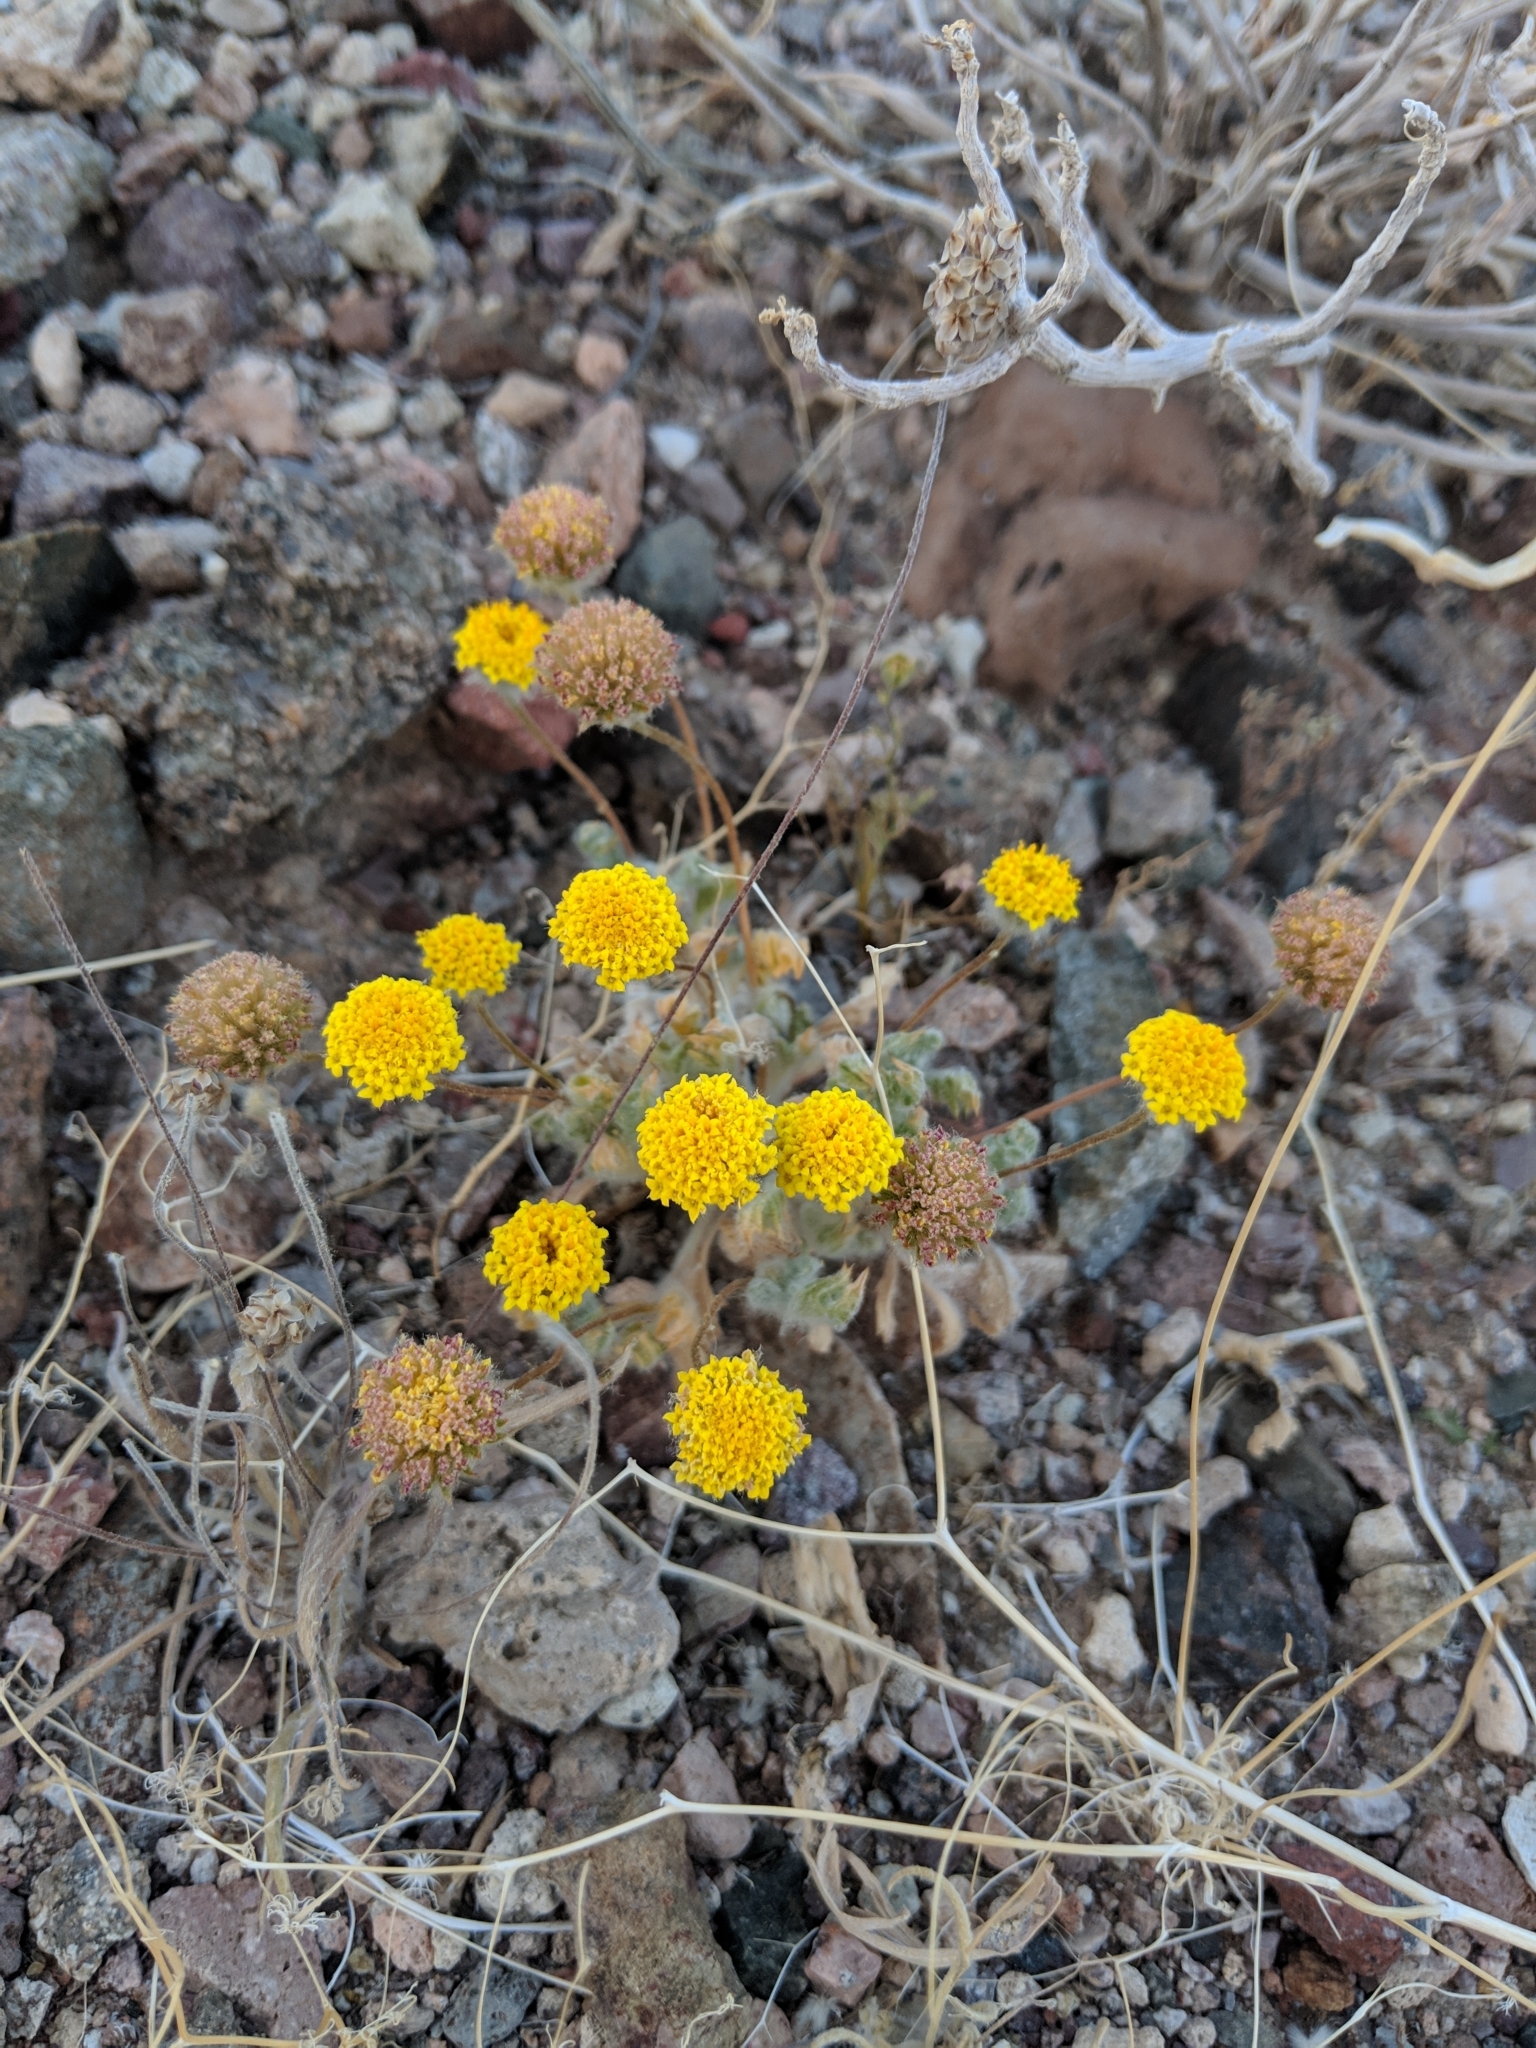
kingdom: Plantae
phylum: Tracheophyta
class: Magnoliopsida
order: Asterales
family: Asteraceae
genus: Trichoptilium
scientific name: Trichoptilium incisum
